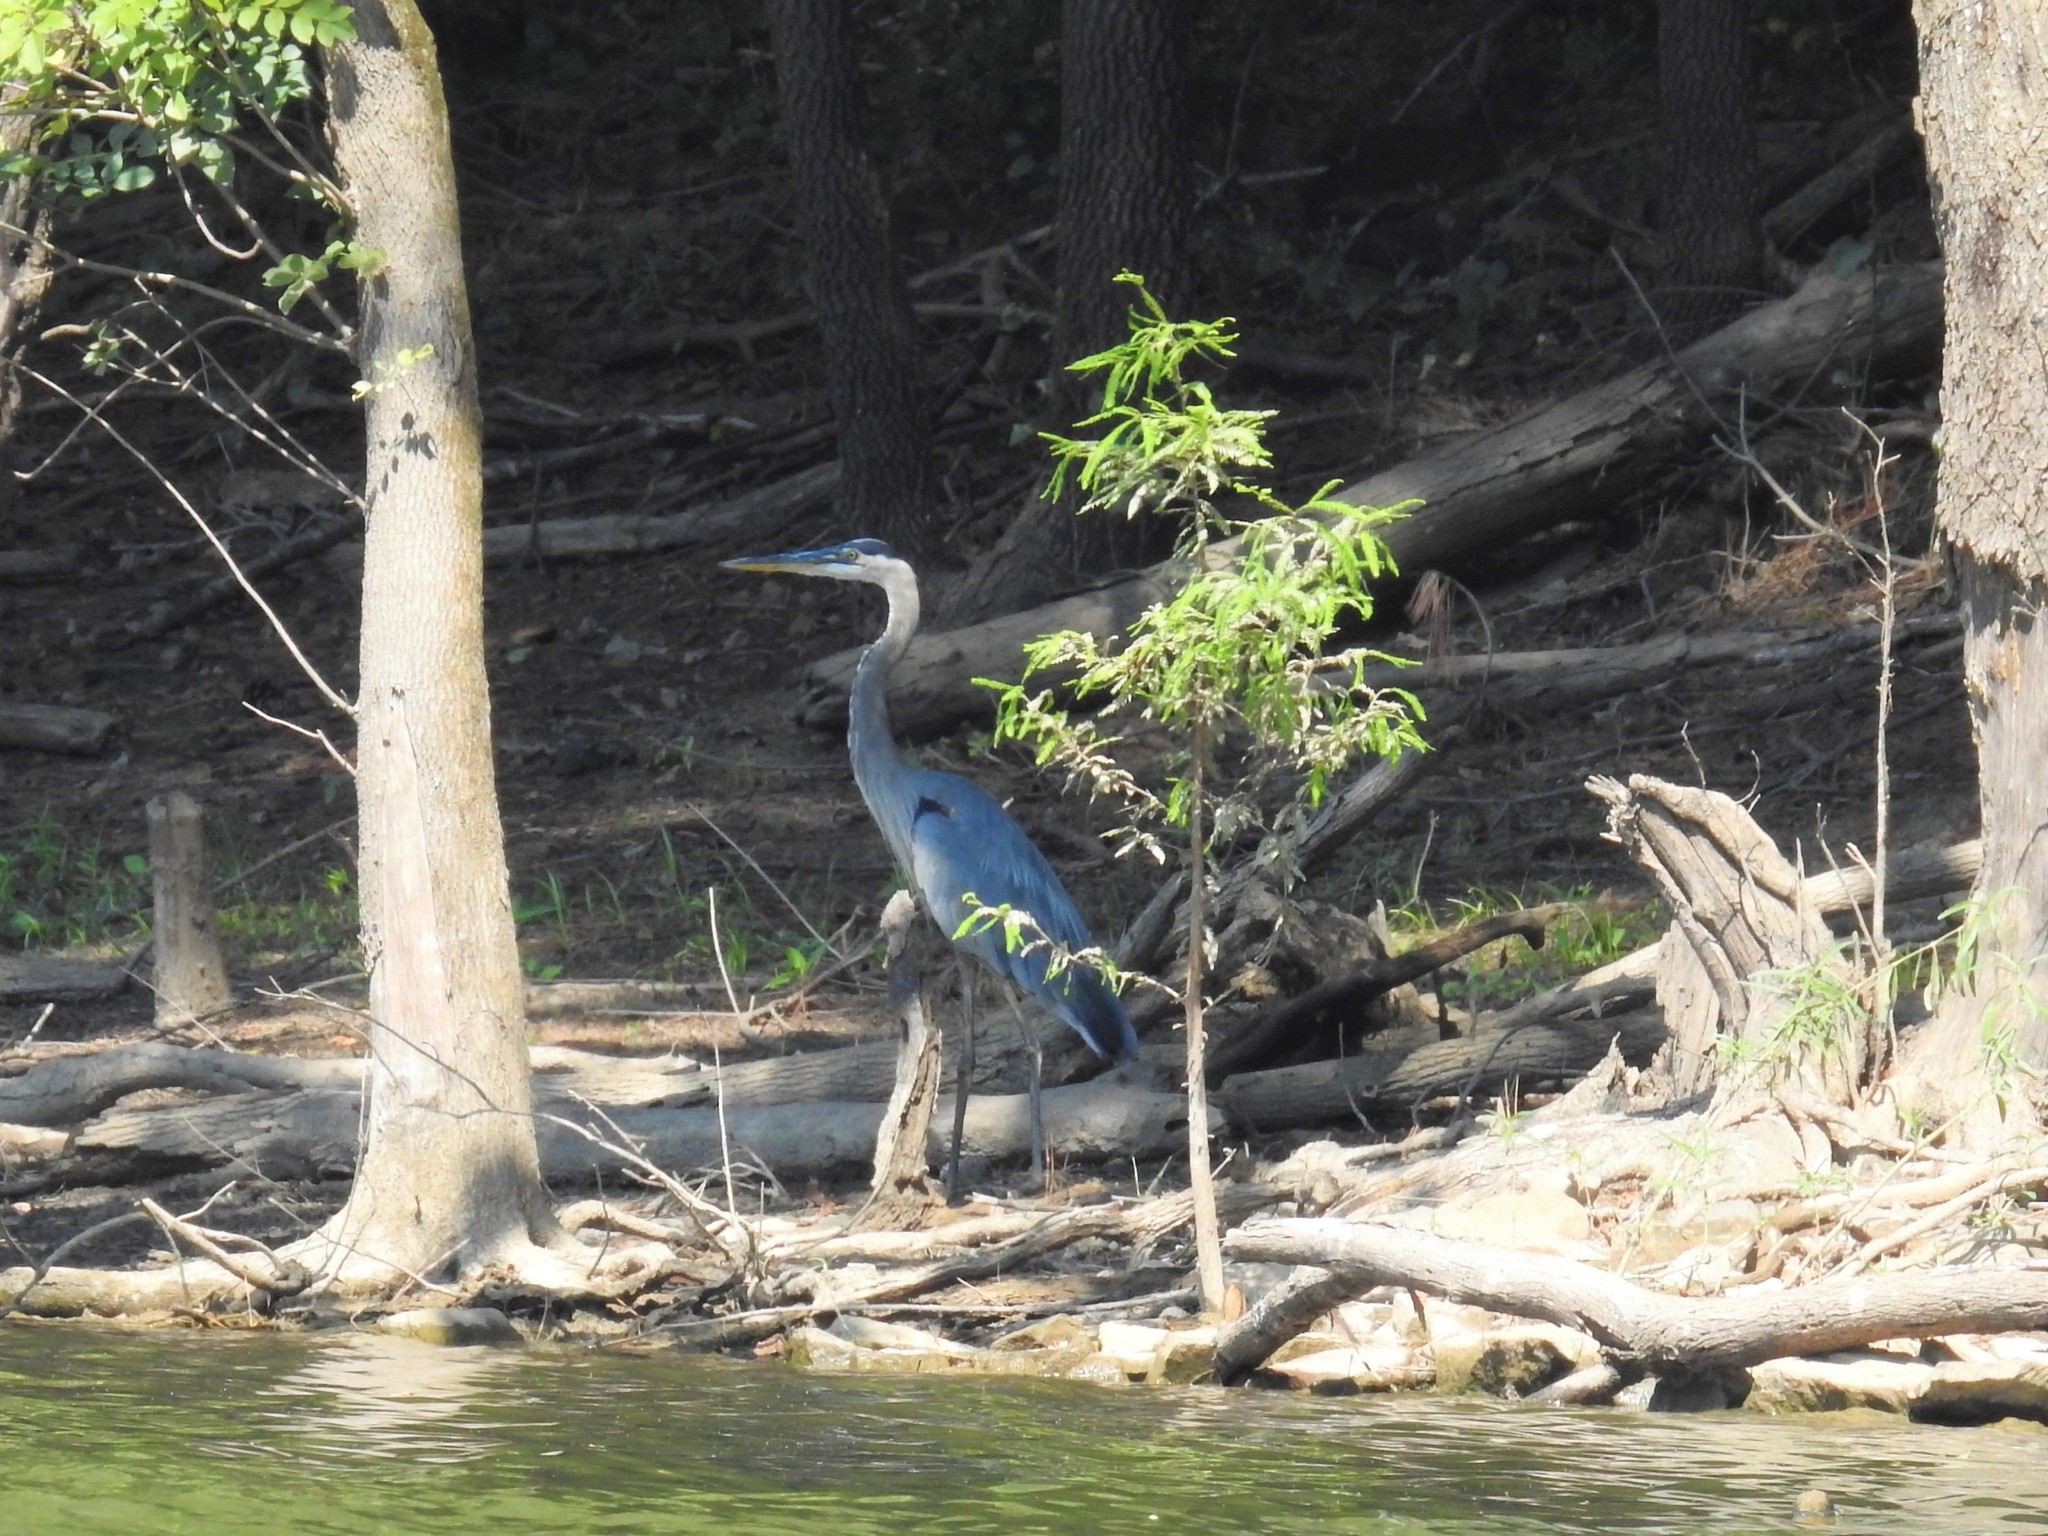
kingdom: Animalia
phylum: Chordata
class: Aves
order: Pelecaniformes
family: Ardeidae
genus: Ardea
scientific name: Ardea herodias
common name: Great blue heron
